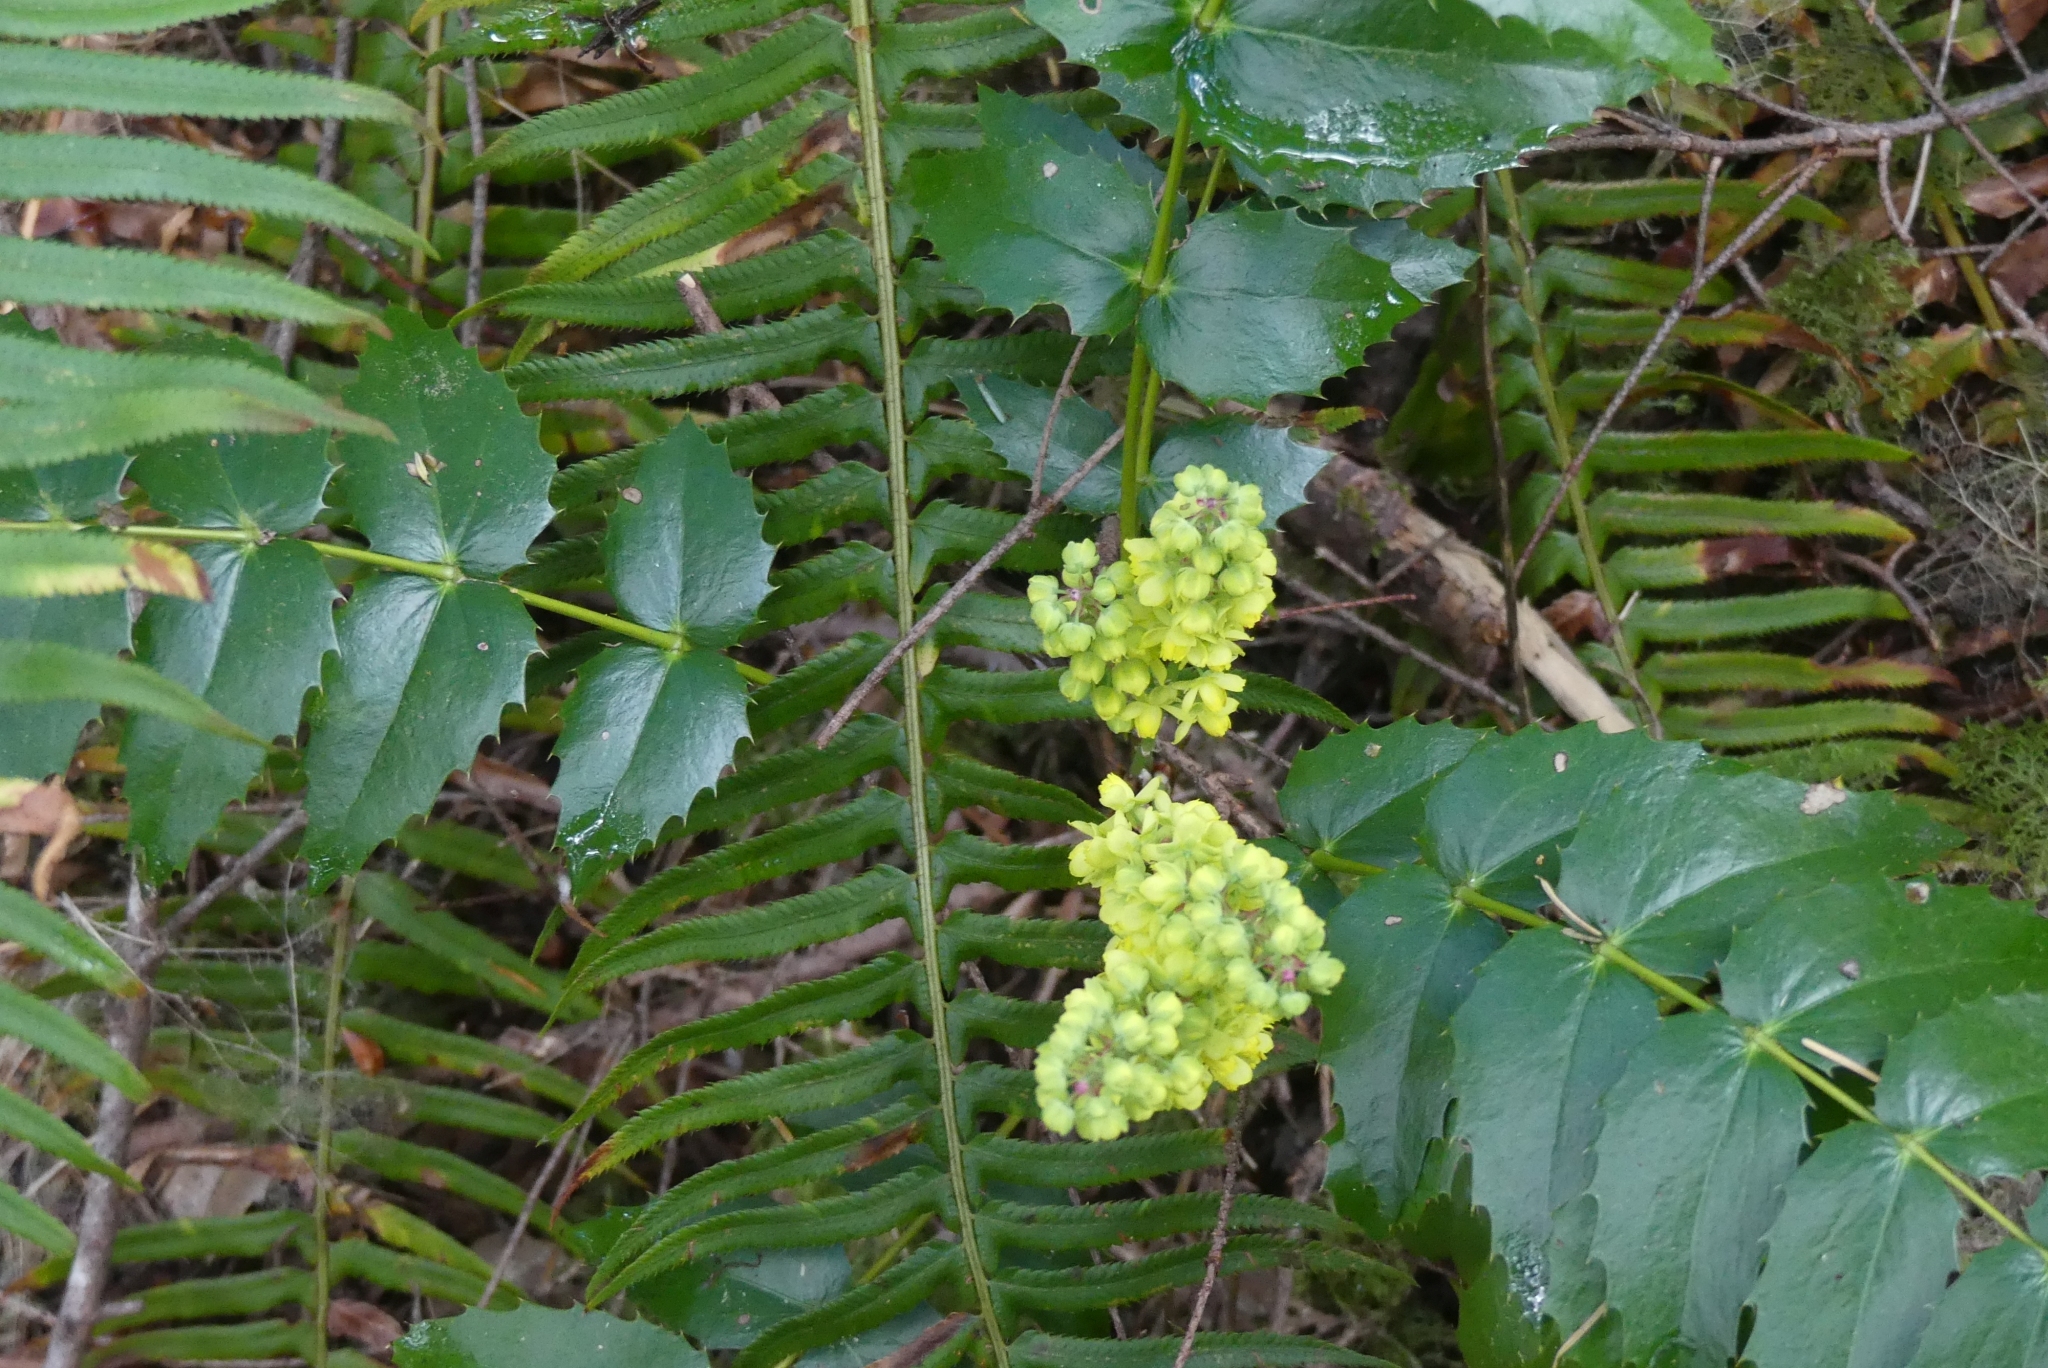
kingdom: Plantae
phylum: Tracheophyta
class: Magnoliopsida
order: Ranunculales
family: Berberidaceae
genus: Mahonia
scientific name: Mahonia nervosa
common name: Cascade oregon-grape
